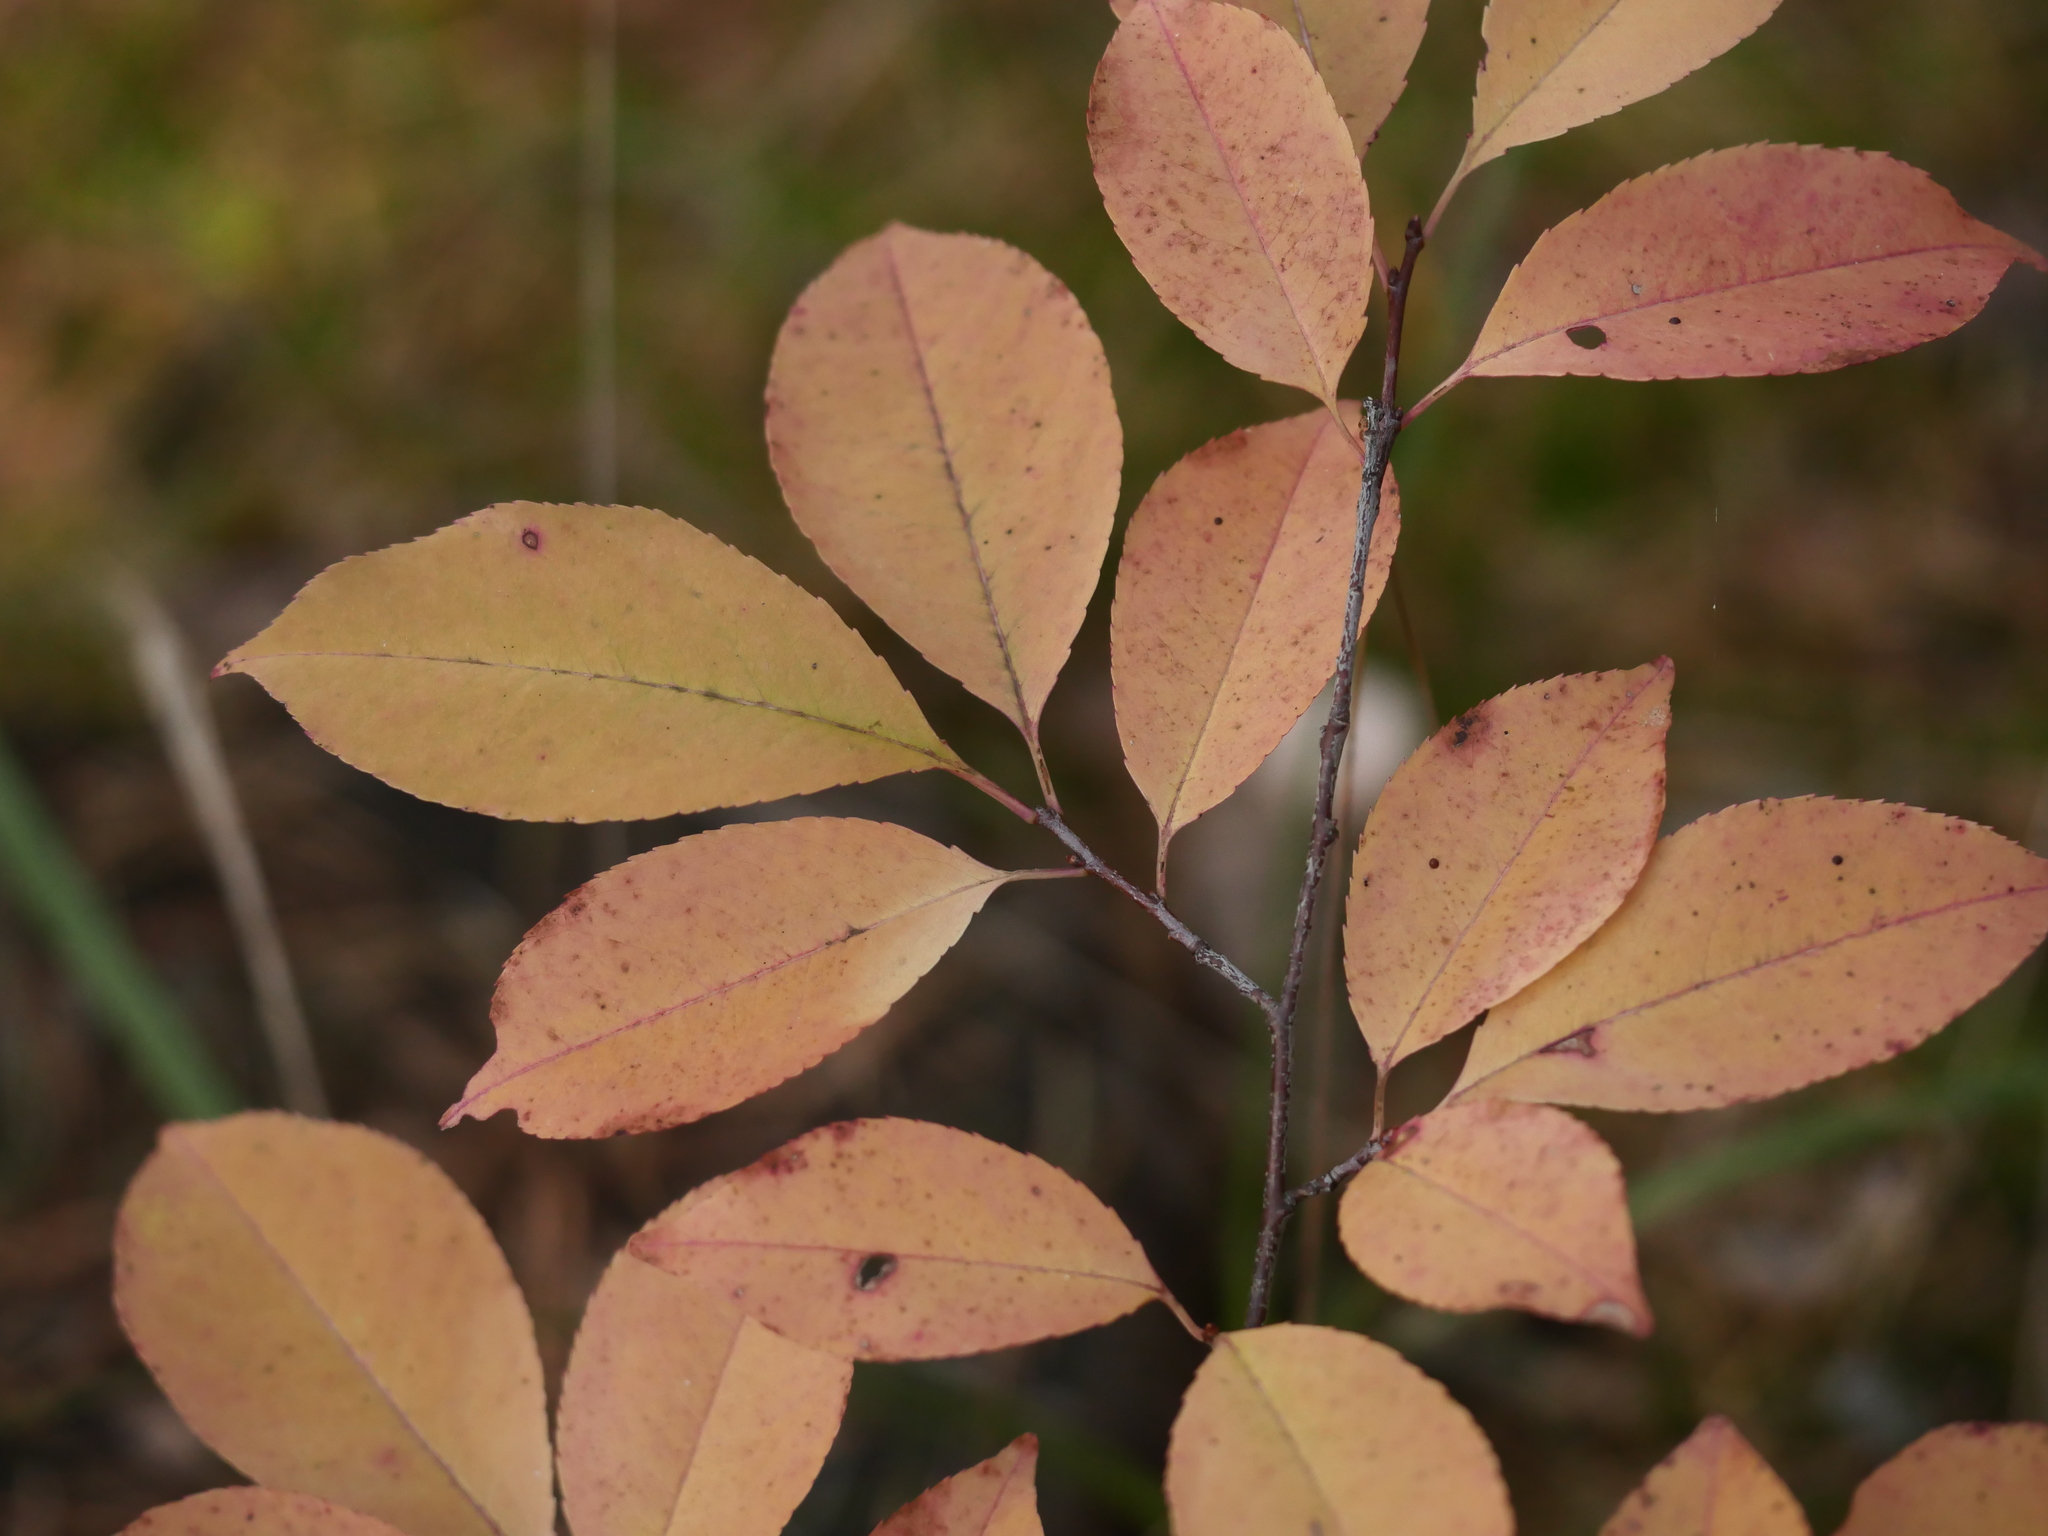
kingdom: Plantae
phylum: Tracheophyta
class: Magnoliopsida
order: Rosales
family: Rosaceae
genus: Prunus
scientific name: Prunus serotina
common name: Black cherry
